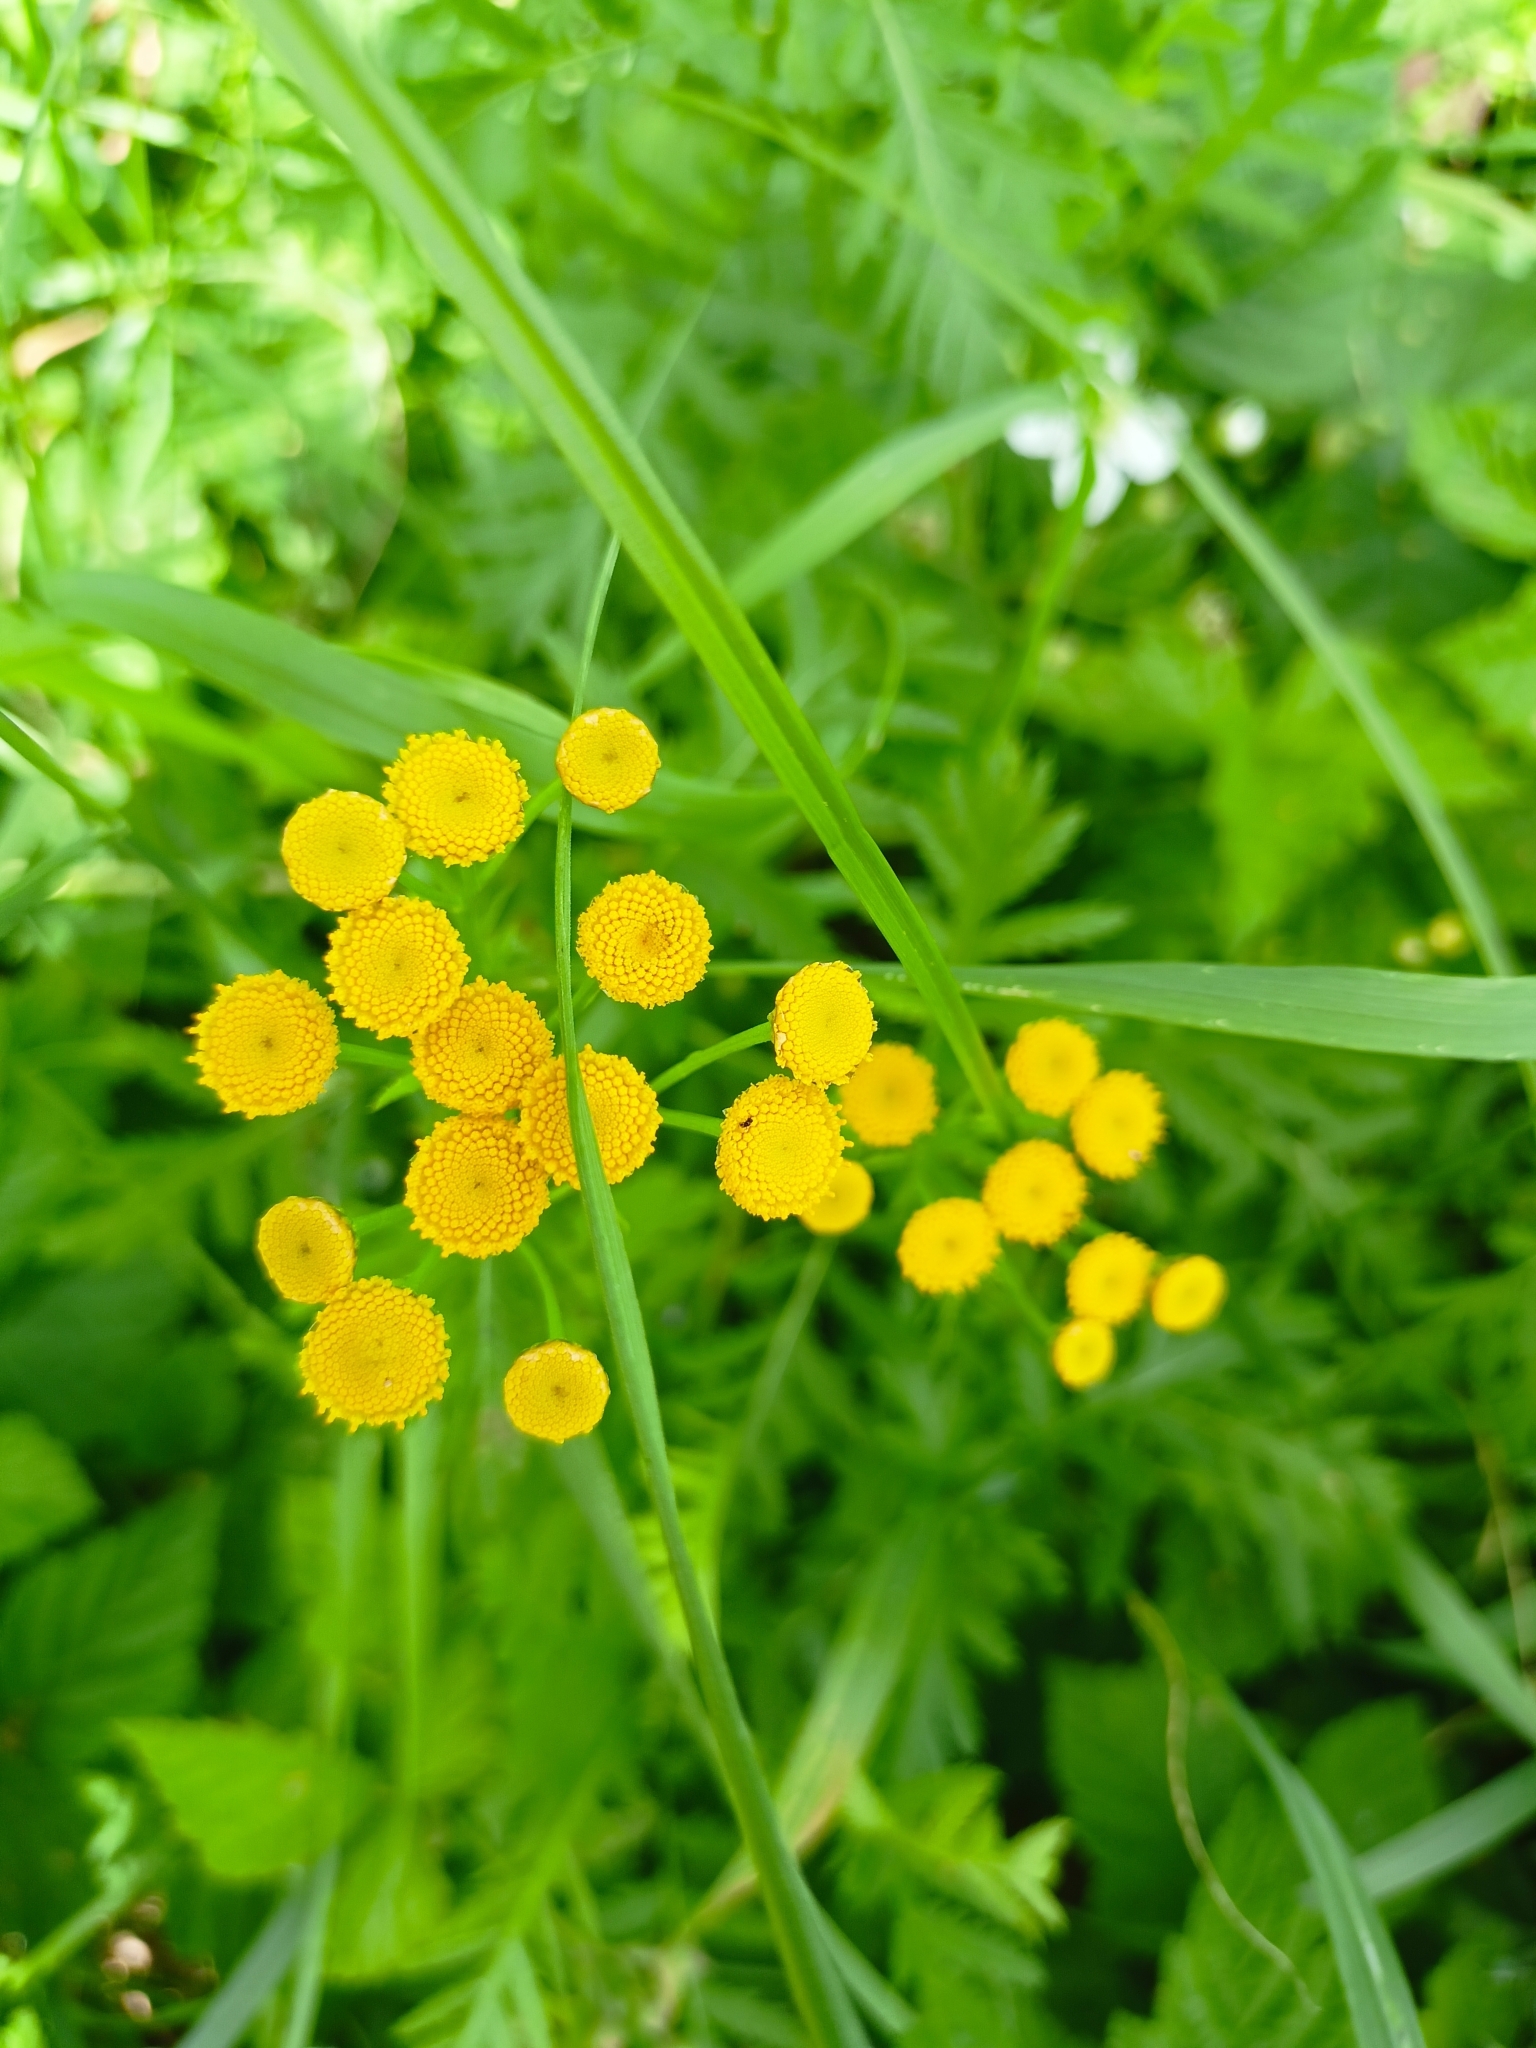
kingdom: Plantae
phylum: Tracheophyta
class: Magnoliopsida
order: Asterales
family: Asteraceae
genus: Tanacetum
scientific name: Tanacetum vulgare
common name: Common tansy
